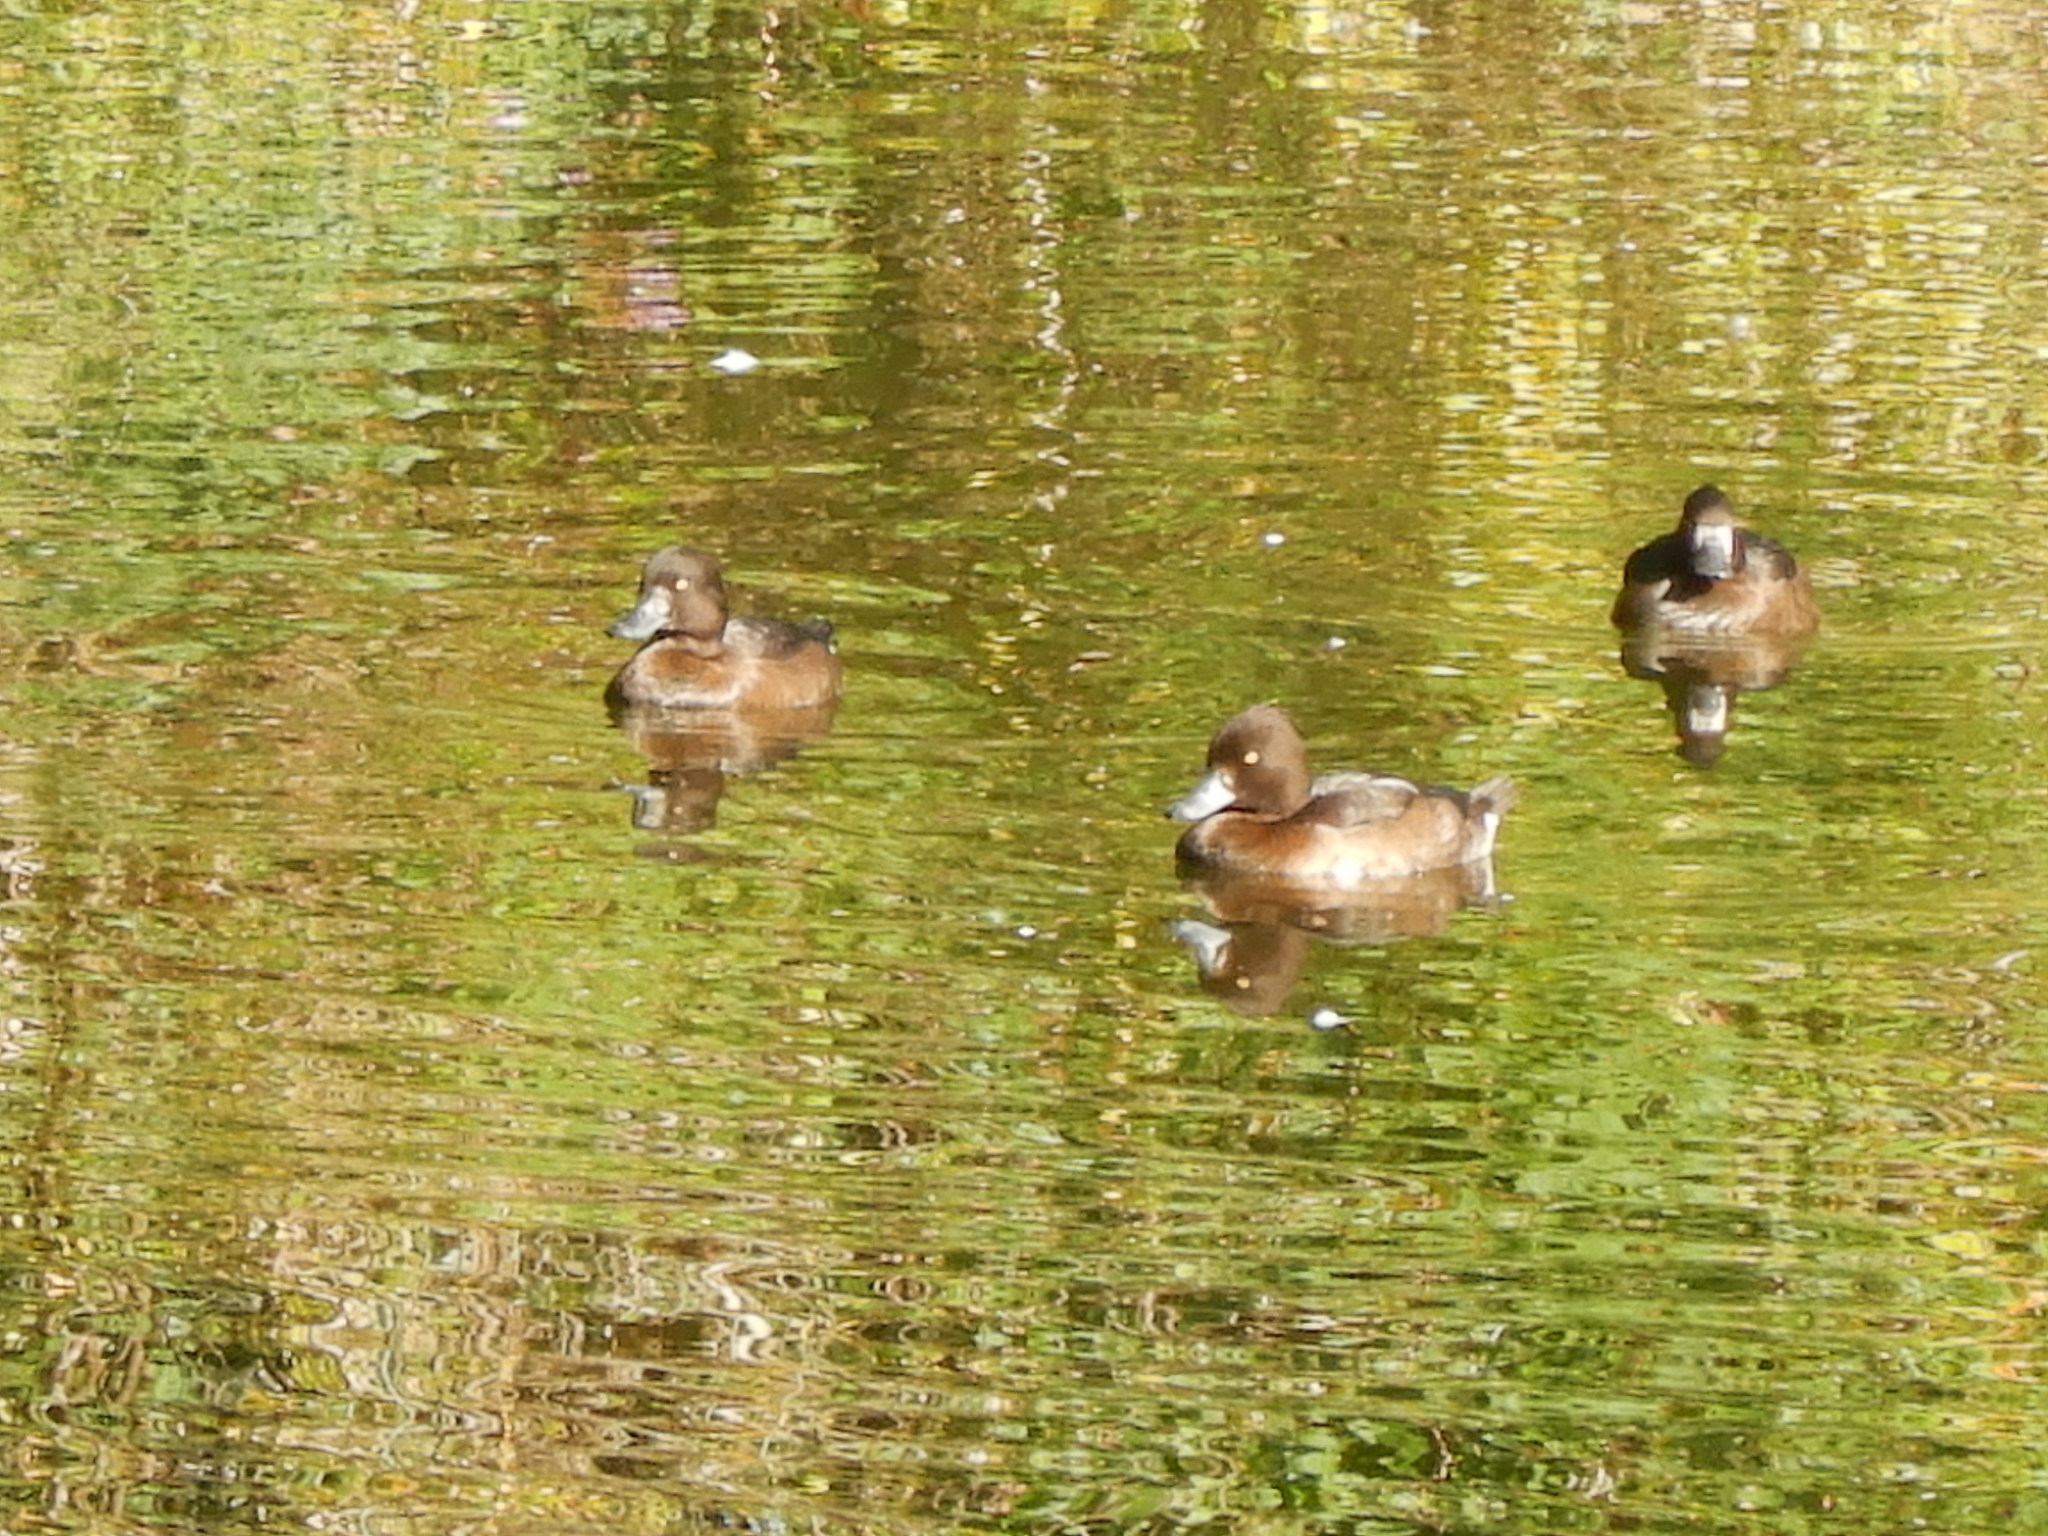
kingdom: Animalia
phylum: Chordata
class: Aves
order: Anseriformes
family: Anatidae
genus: Aythya
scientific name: Aythya fuligula
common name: Tufted duck
